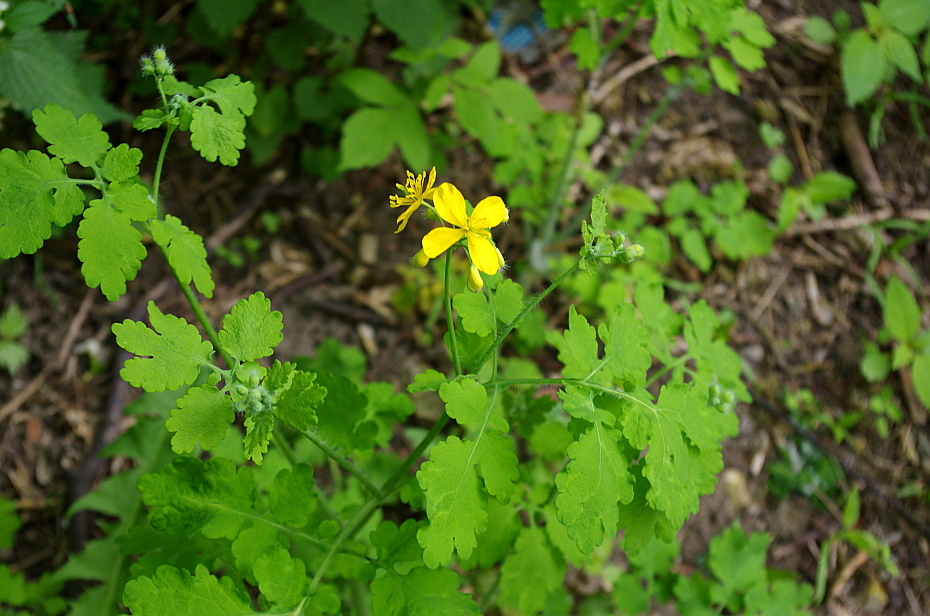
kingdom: Plantae
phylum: Tracheophyta
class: Magnoliopsida
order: Ranunculales
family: Papaveraceae
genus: Chelidonium
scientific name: Chelidonium majus
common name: Greater celandine
